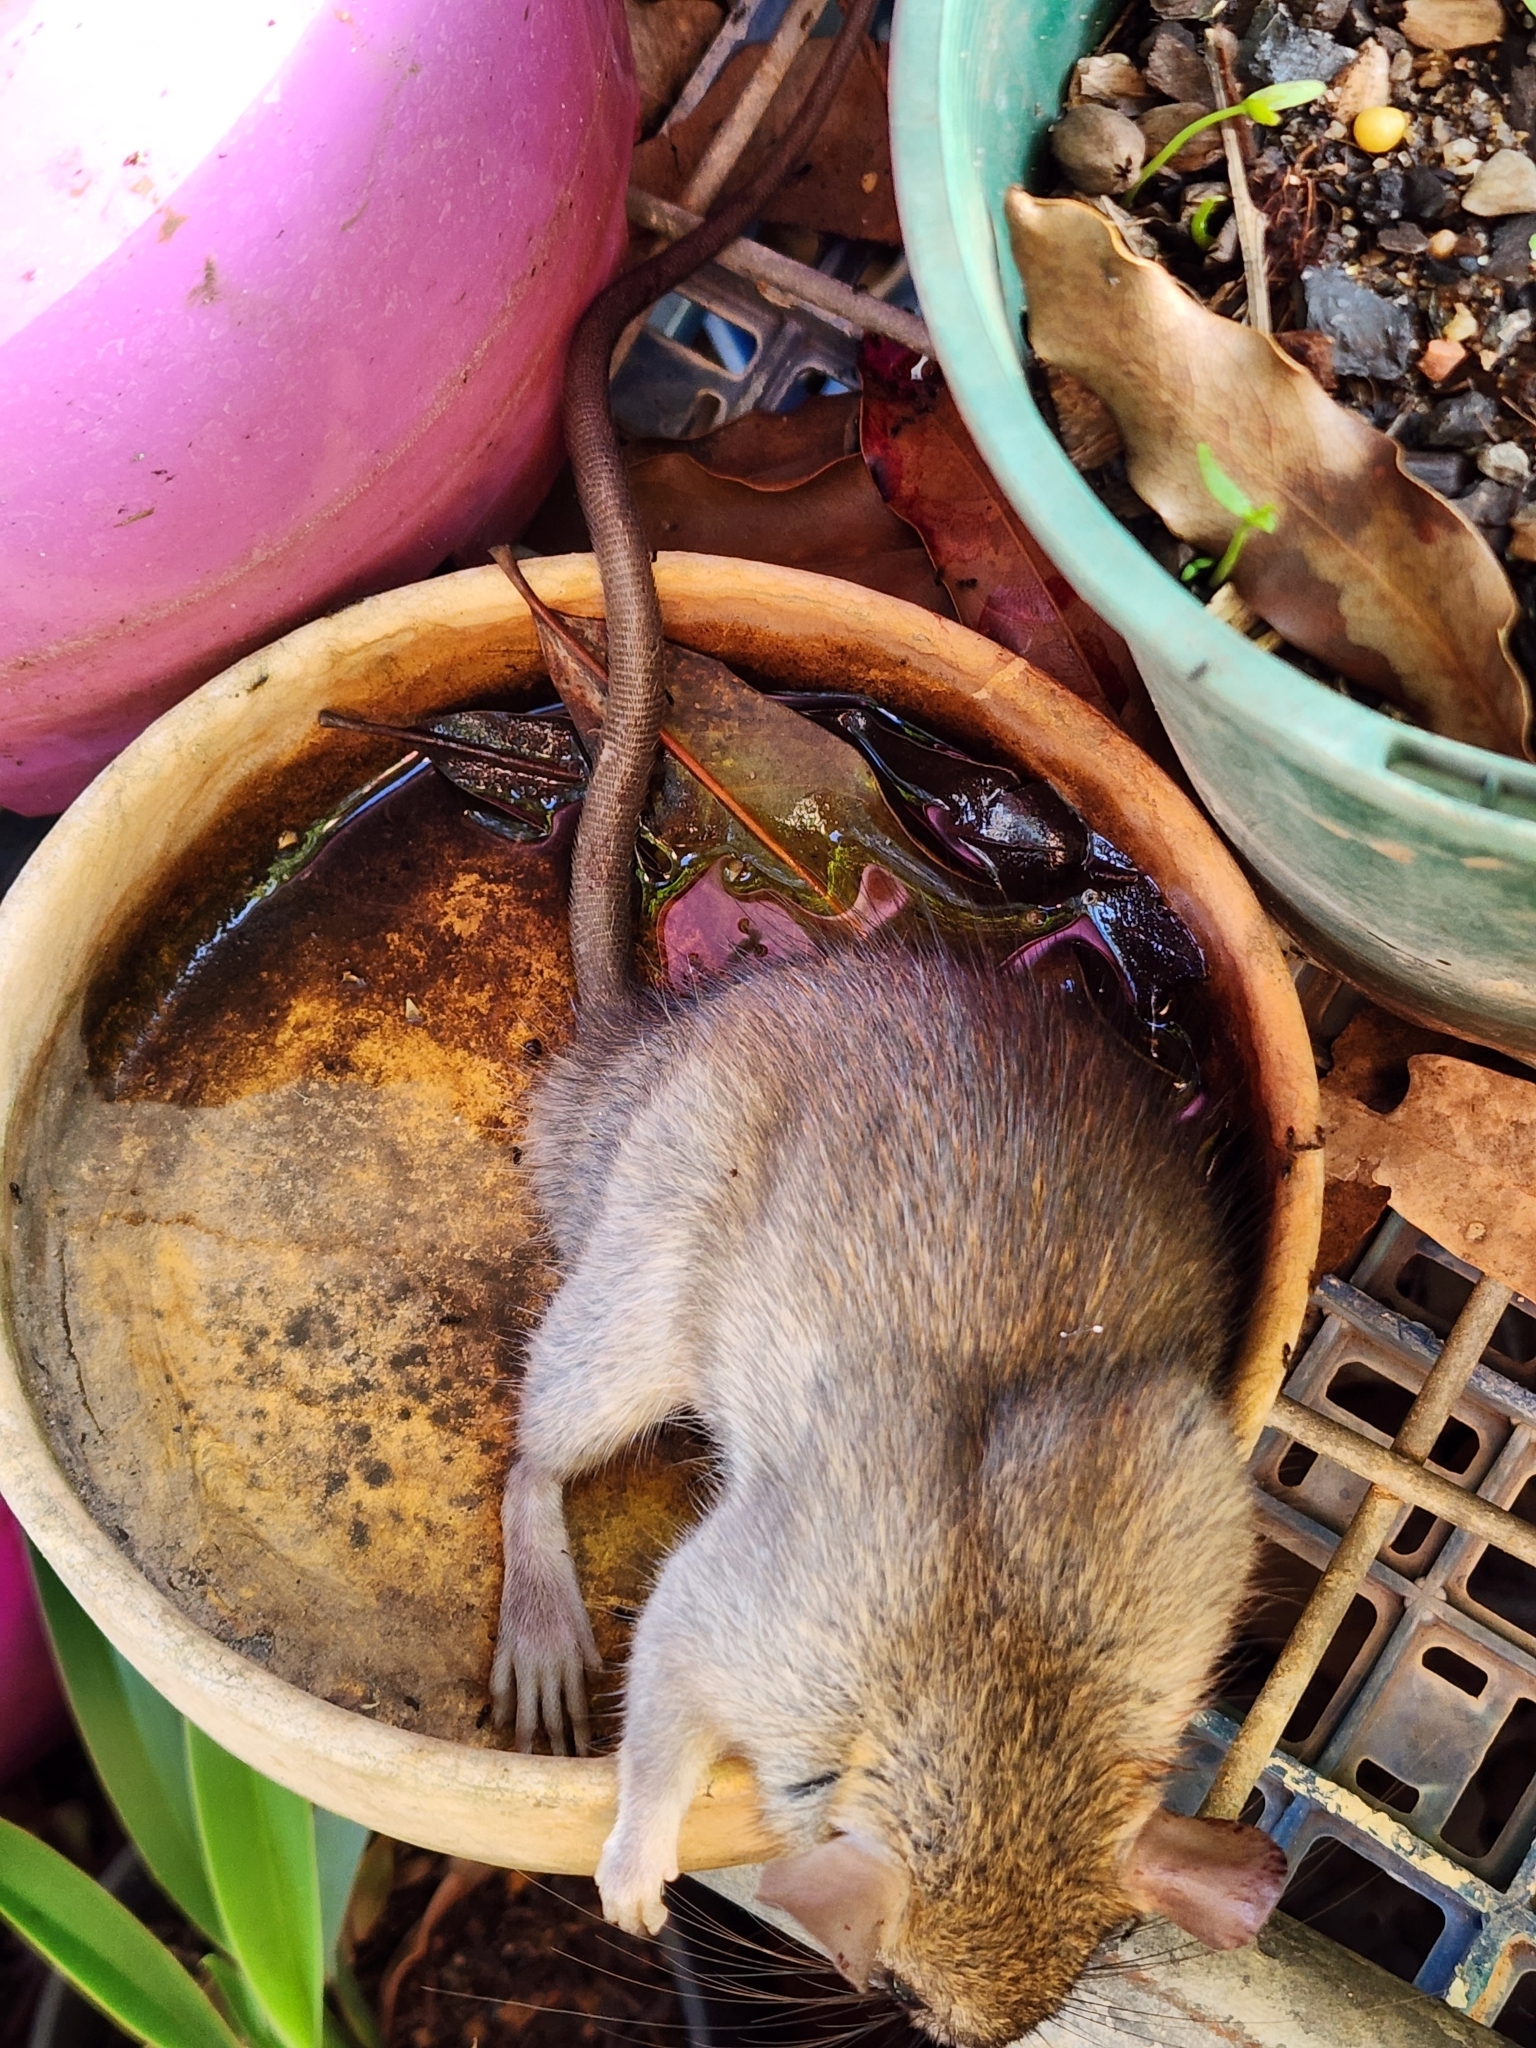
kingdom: Animalia
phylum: Chordata
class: Mammalia
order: Rodentia
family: Muridae
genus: Rattus
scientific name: Rattus rattus
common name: Black rat
